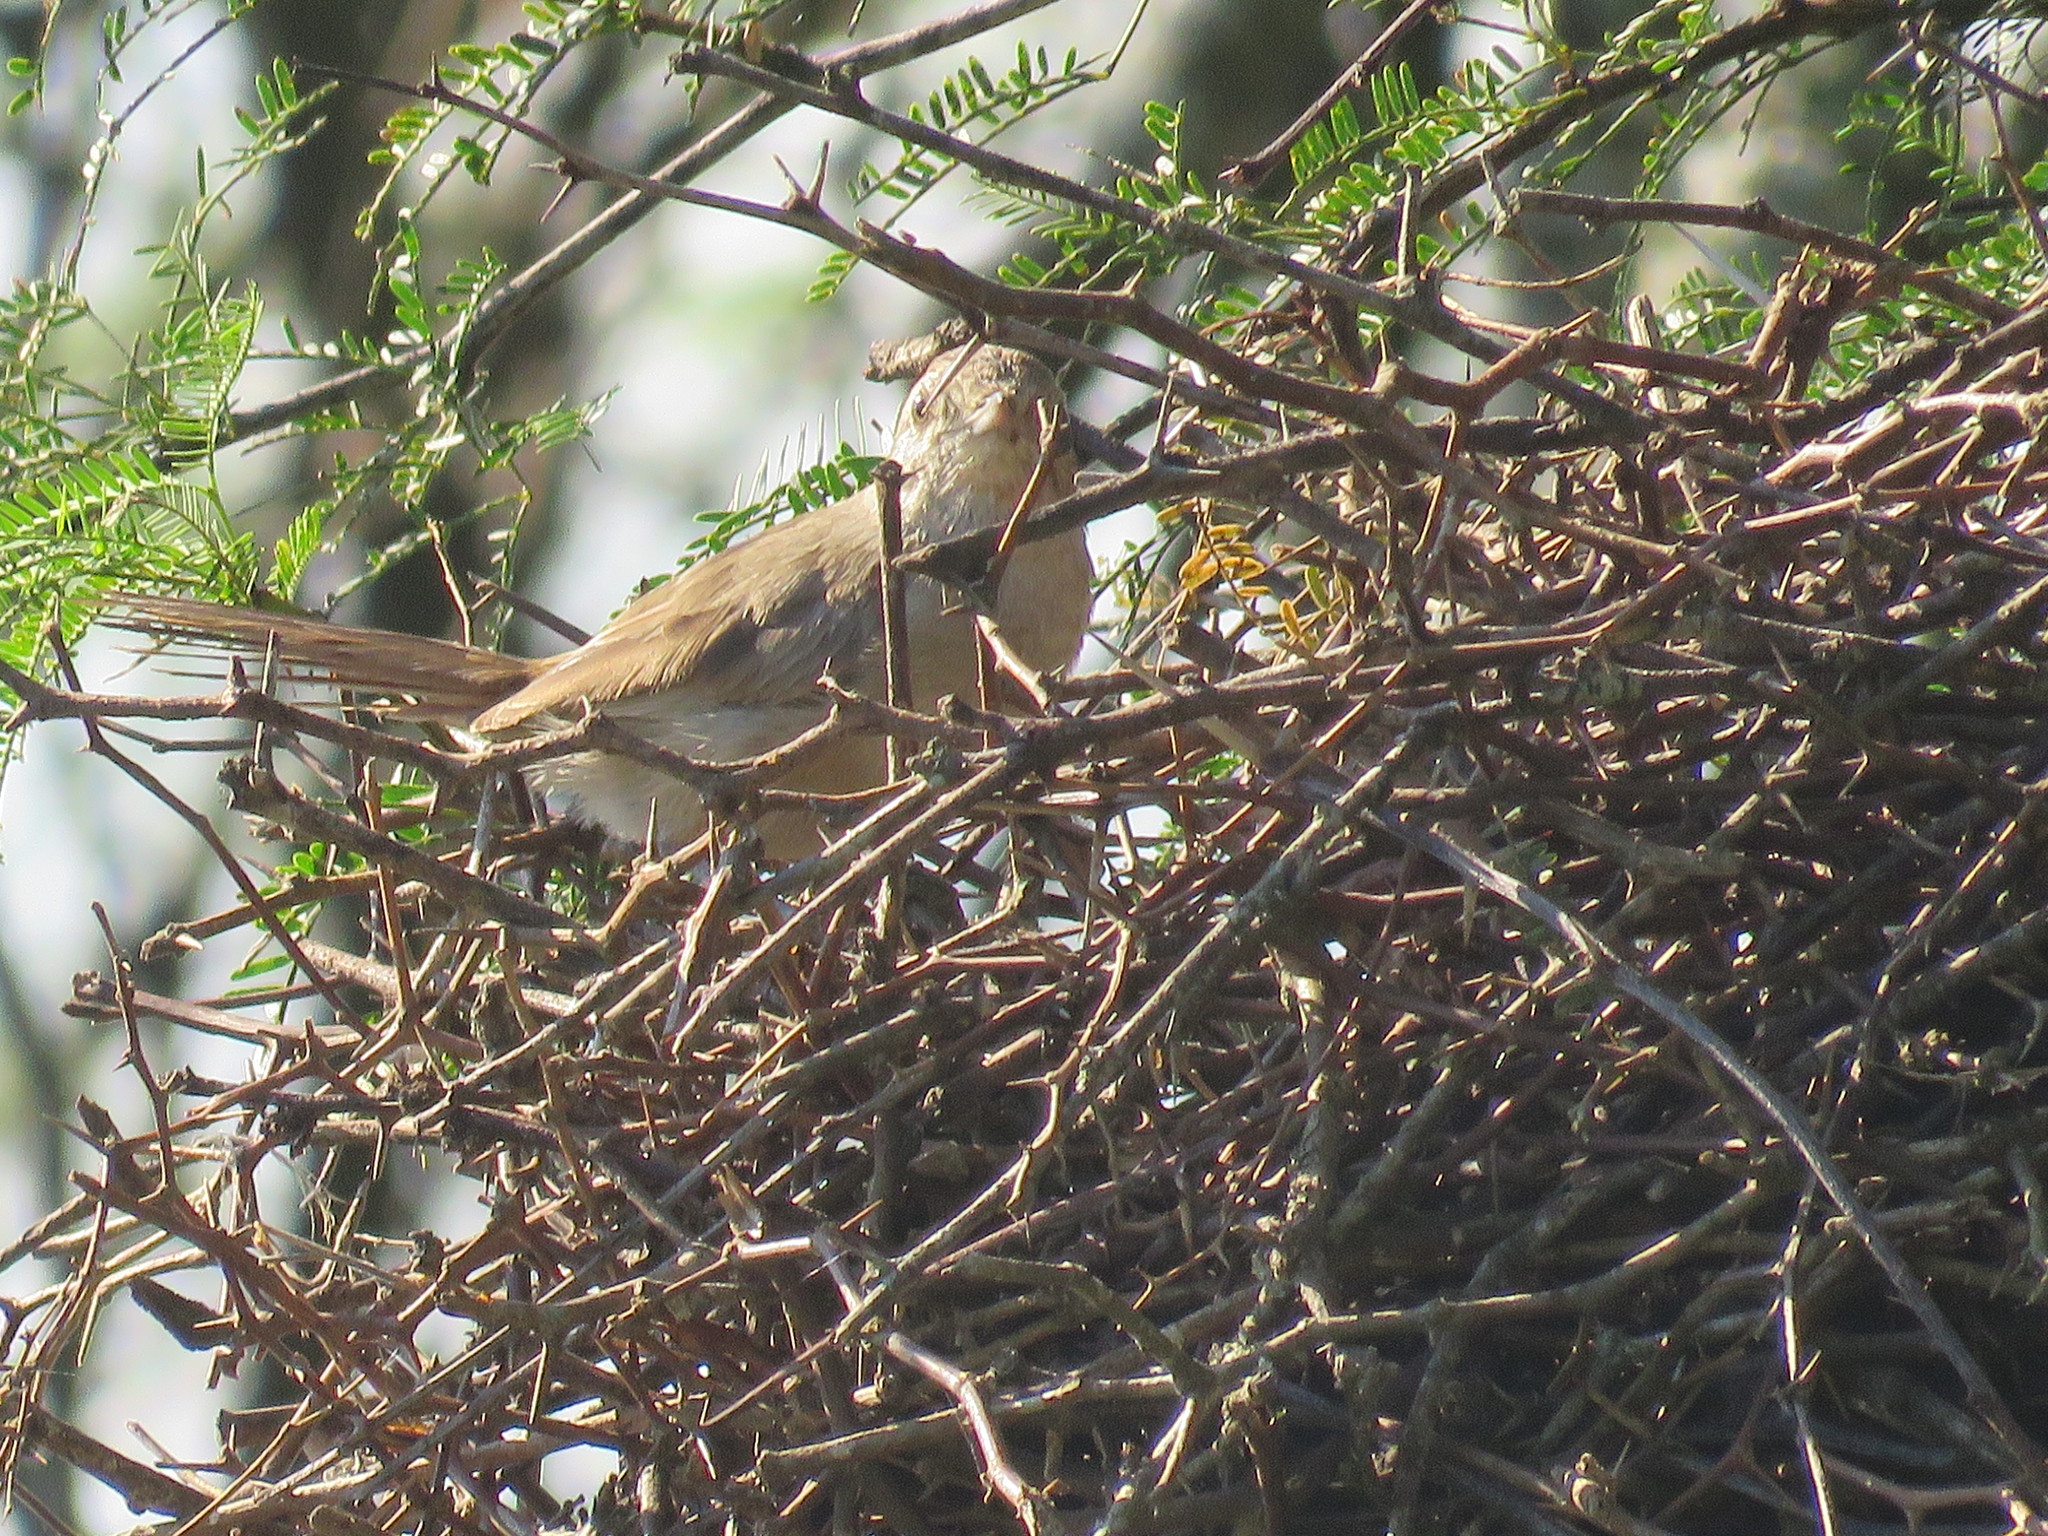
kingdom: Animalia
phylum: Chordata
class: Aves
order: Passeriformes
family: Furnariidae
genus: Asthenes
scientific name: Asthenes baeri
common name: Short-billed canastero
